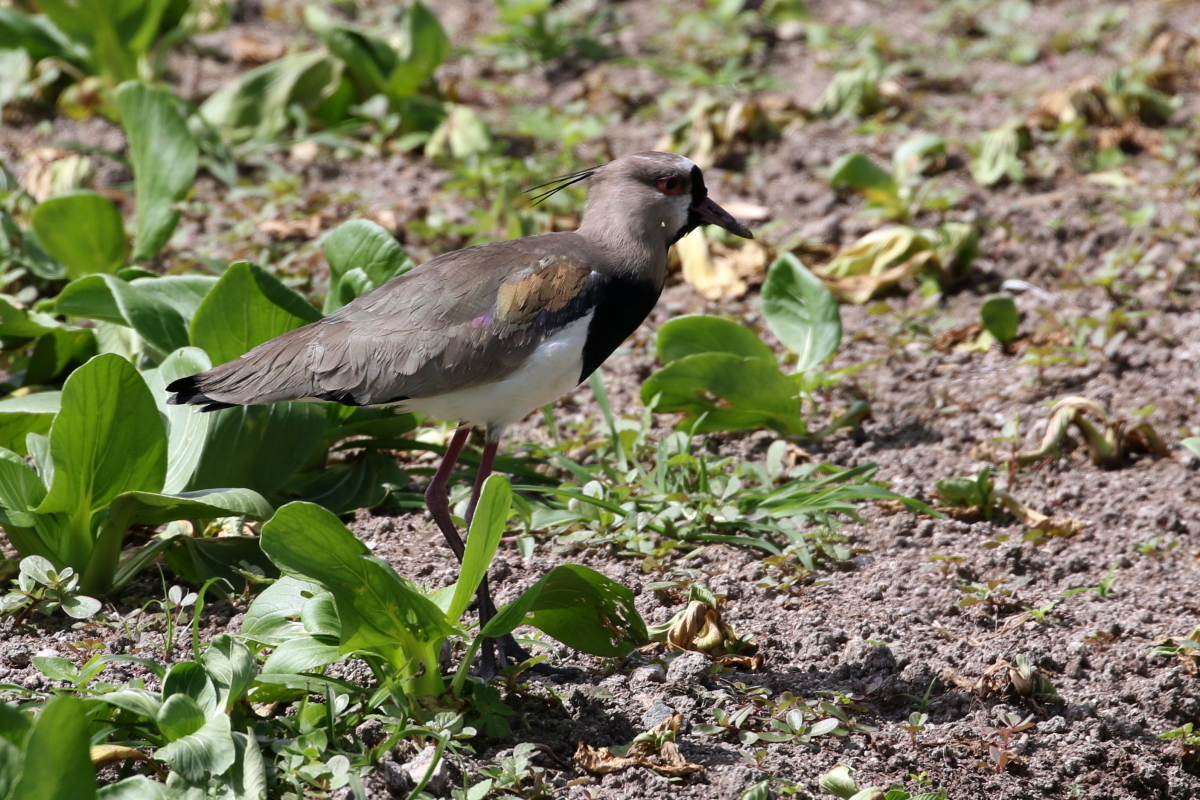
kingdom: Animalia
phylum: Chordata
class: Aves
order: Charadriiformes
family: Charadriidae
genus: Vanellus
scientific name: Vanellus chilensis
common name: Southern lapwing
